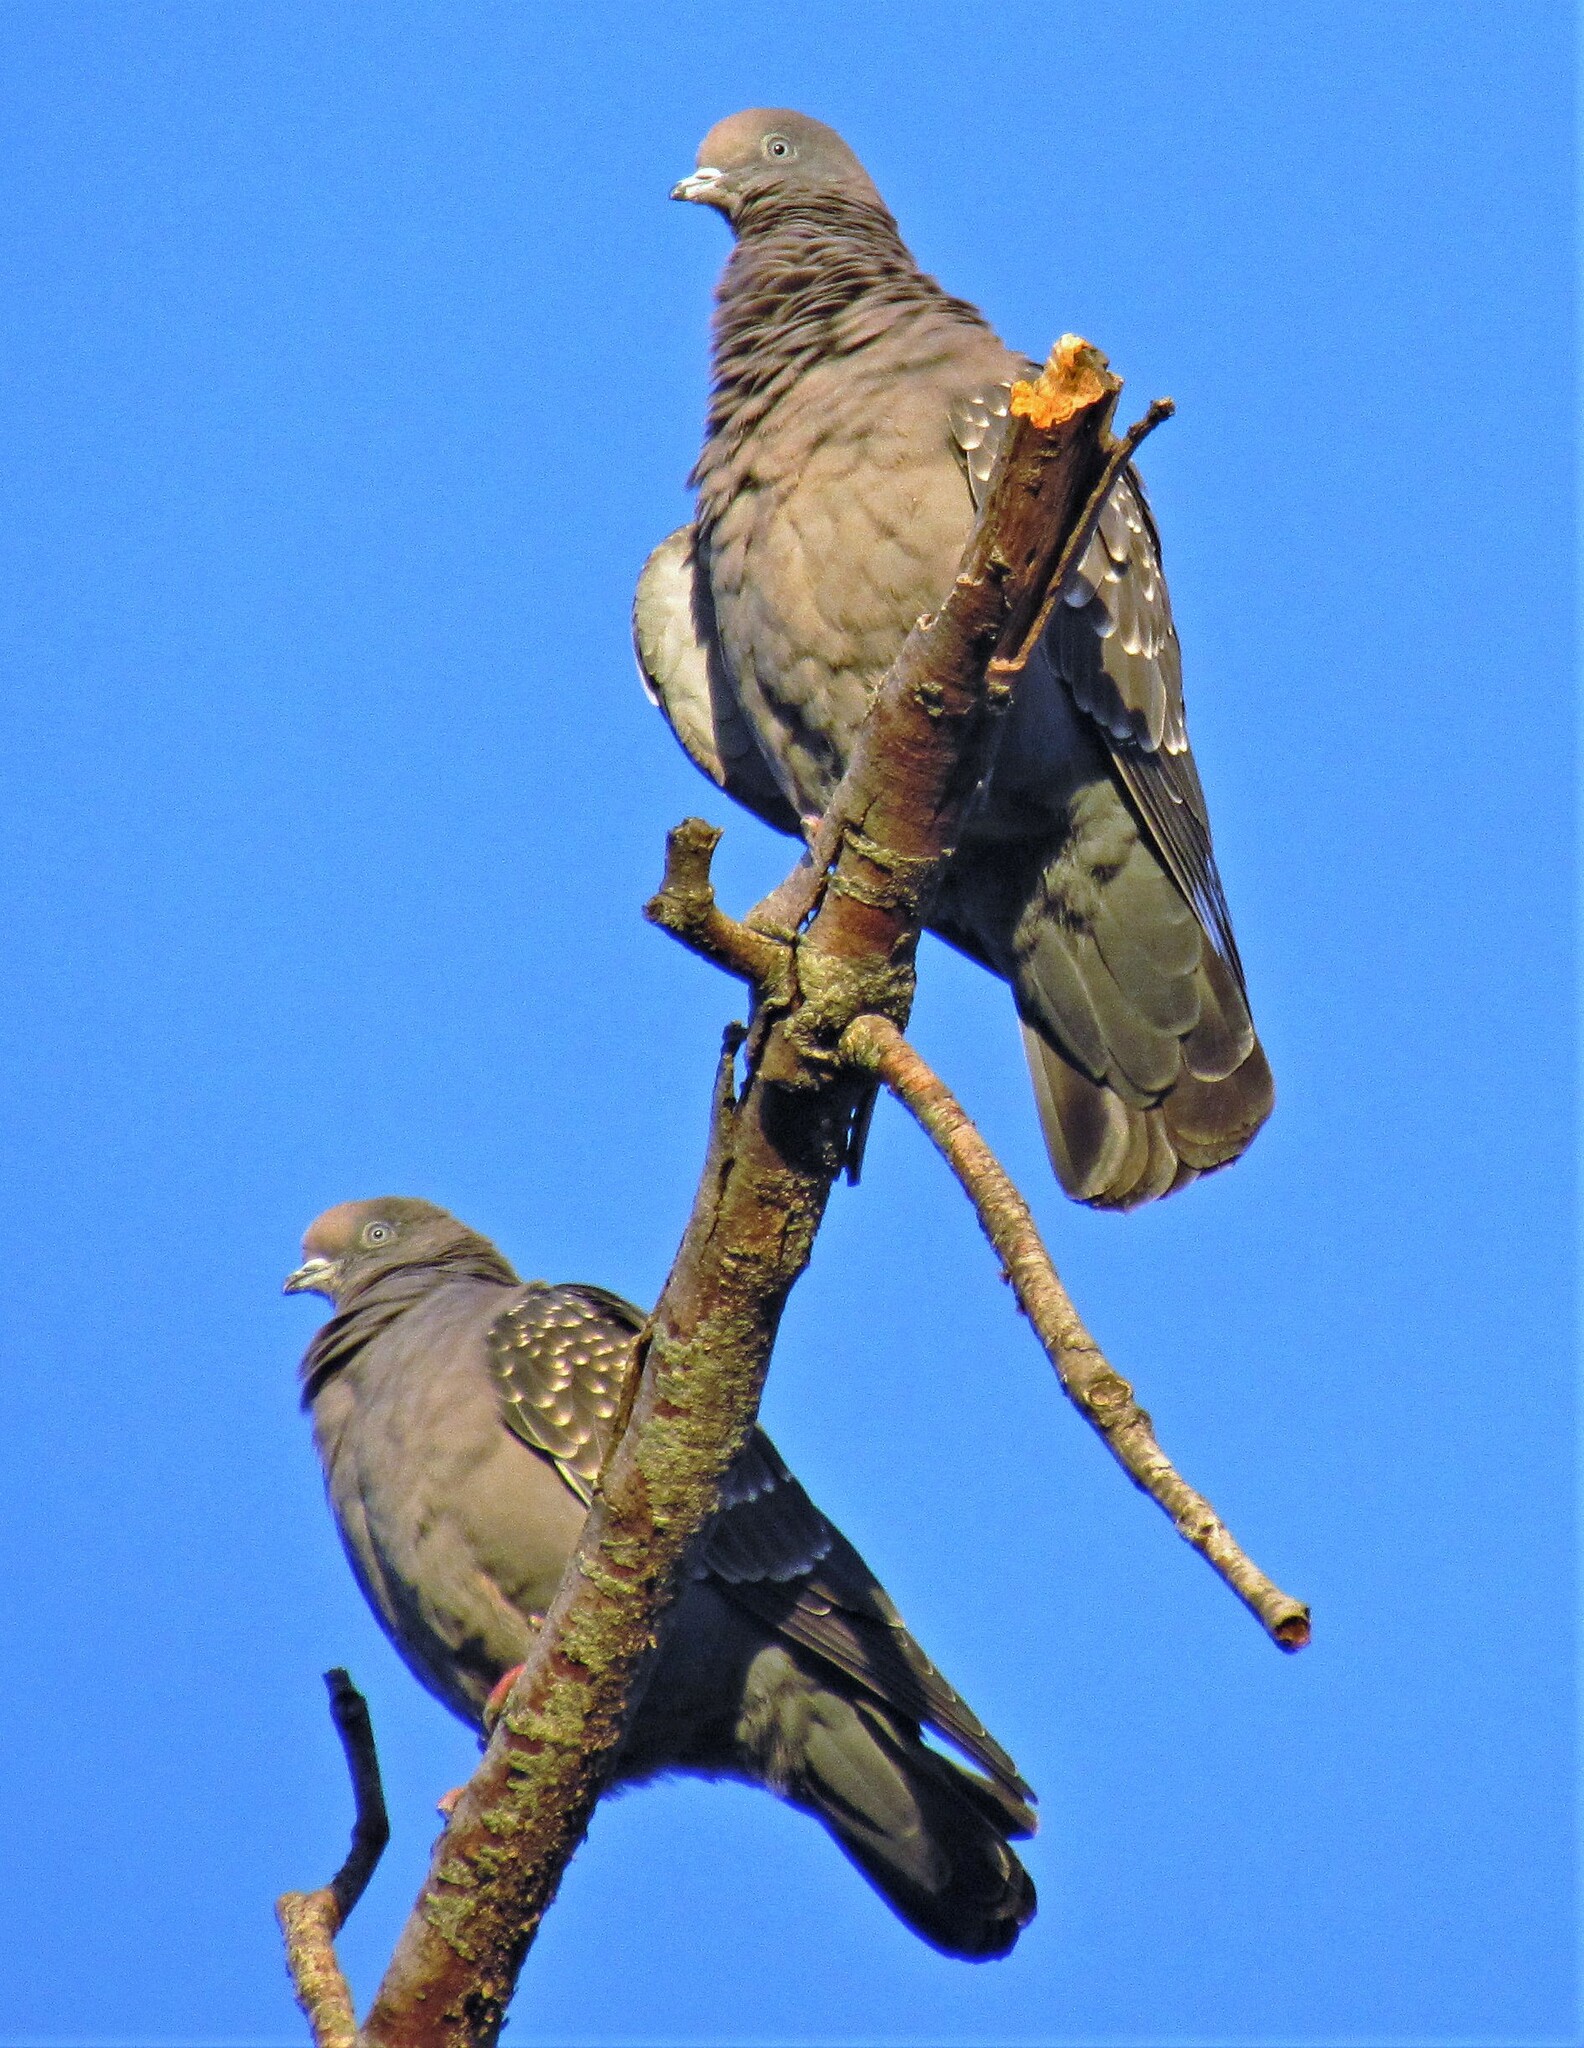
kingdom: Animalia
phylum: Chordata
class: Aves
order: Columbiformes
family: Columbidae
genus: Patagioenas
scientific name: Patagioenas maculosa
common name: Spot-winged pigeon
